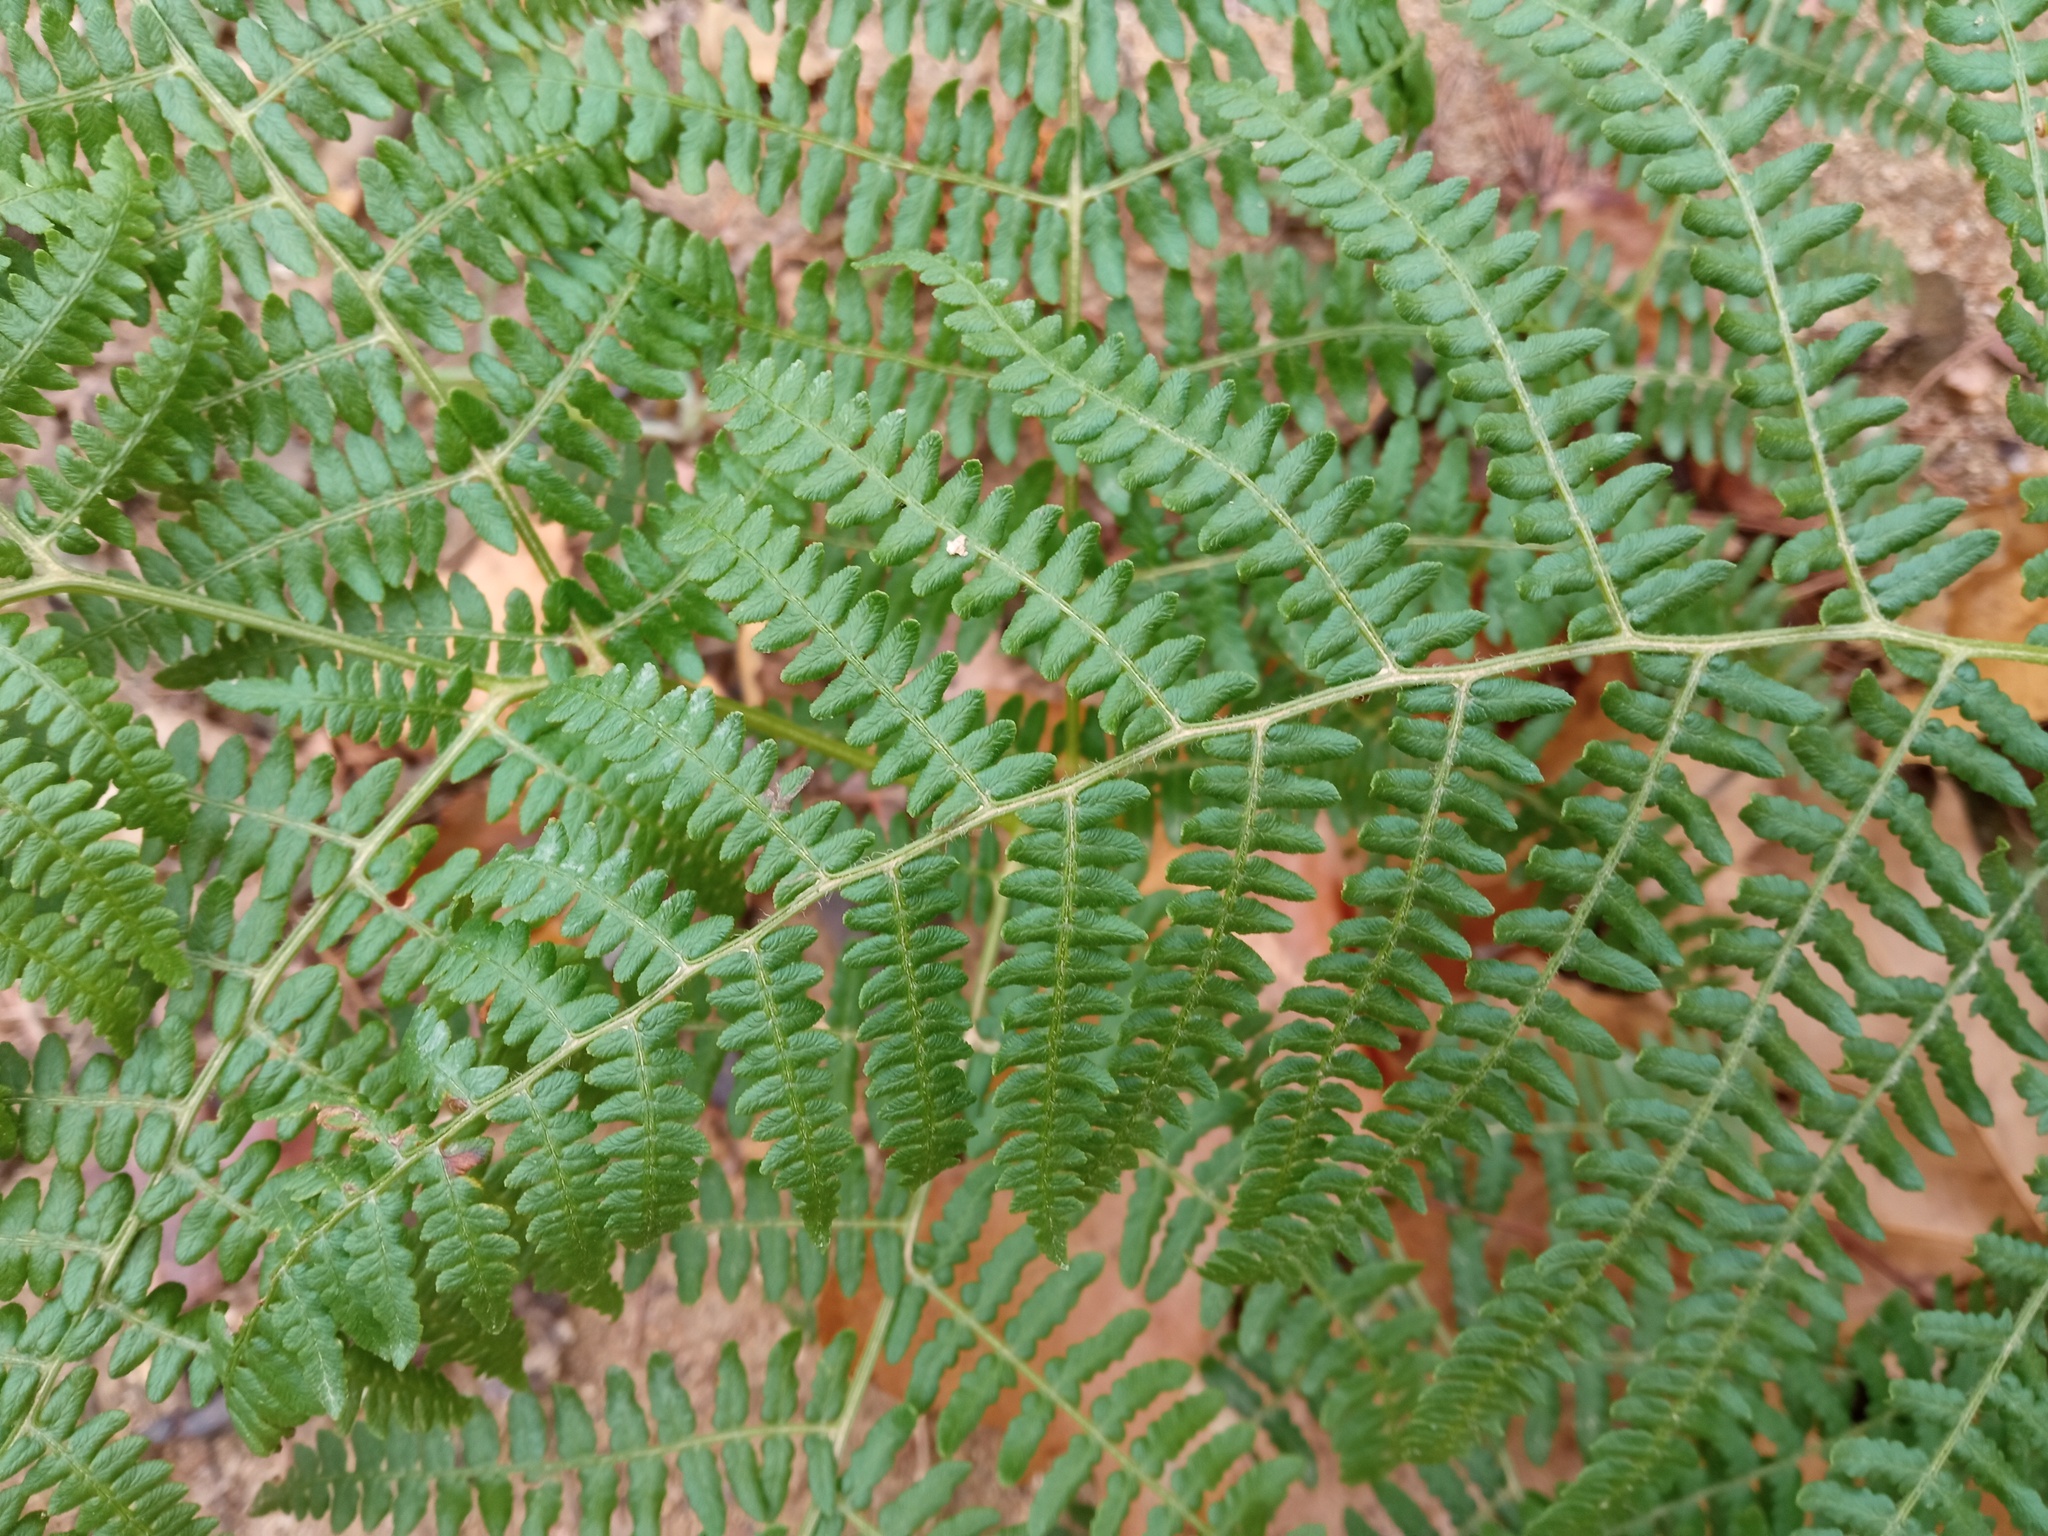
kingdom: Plantae
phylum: Tracheophyta
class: Polypodiopsida
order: Polypodiales
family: Dennstaedtiaceae
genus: Pteridium
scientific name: Pteridium aquilinum
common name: Bracken
